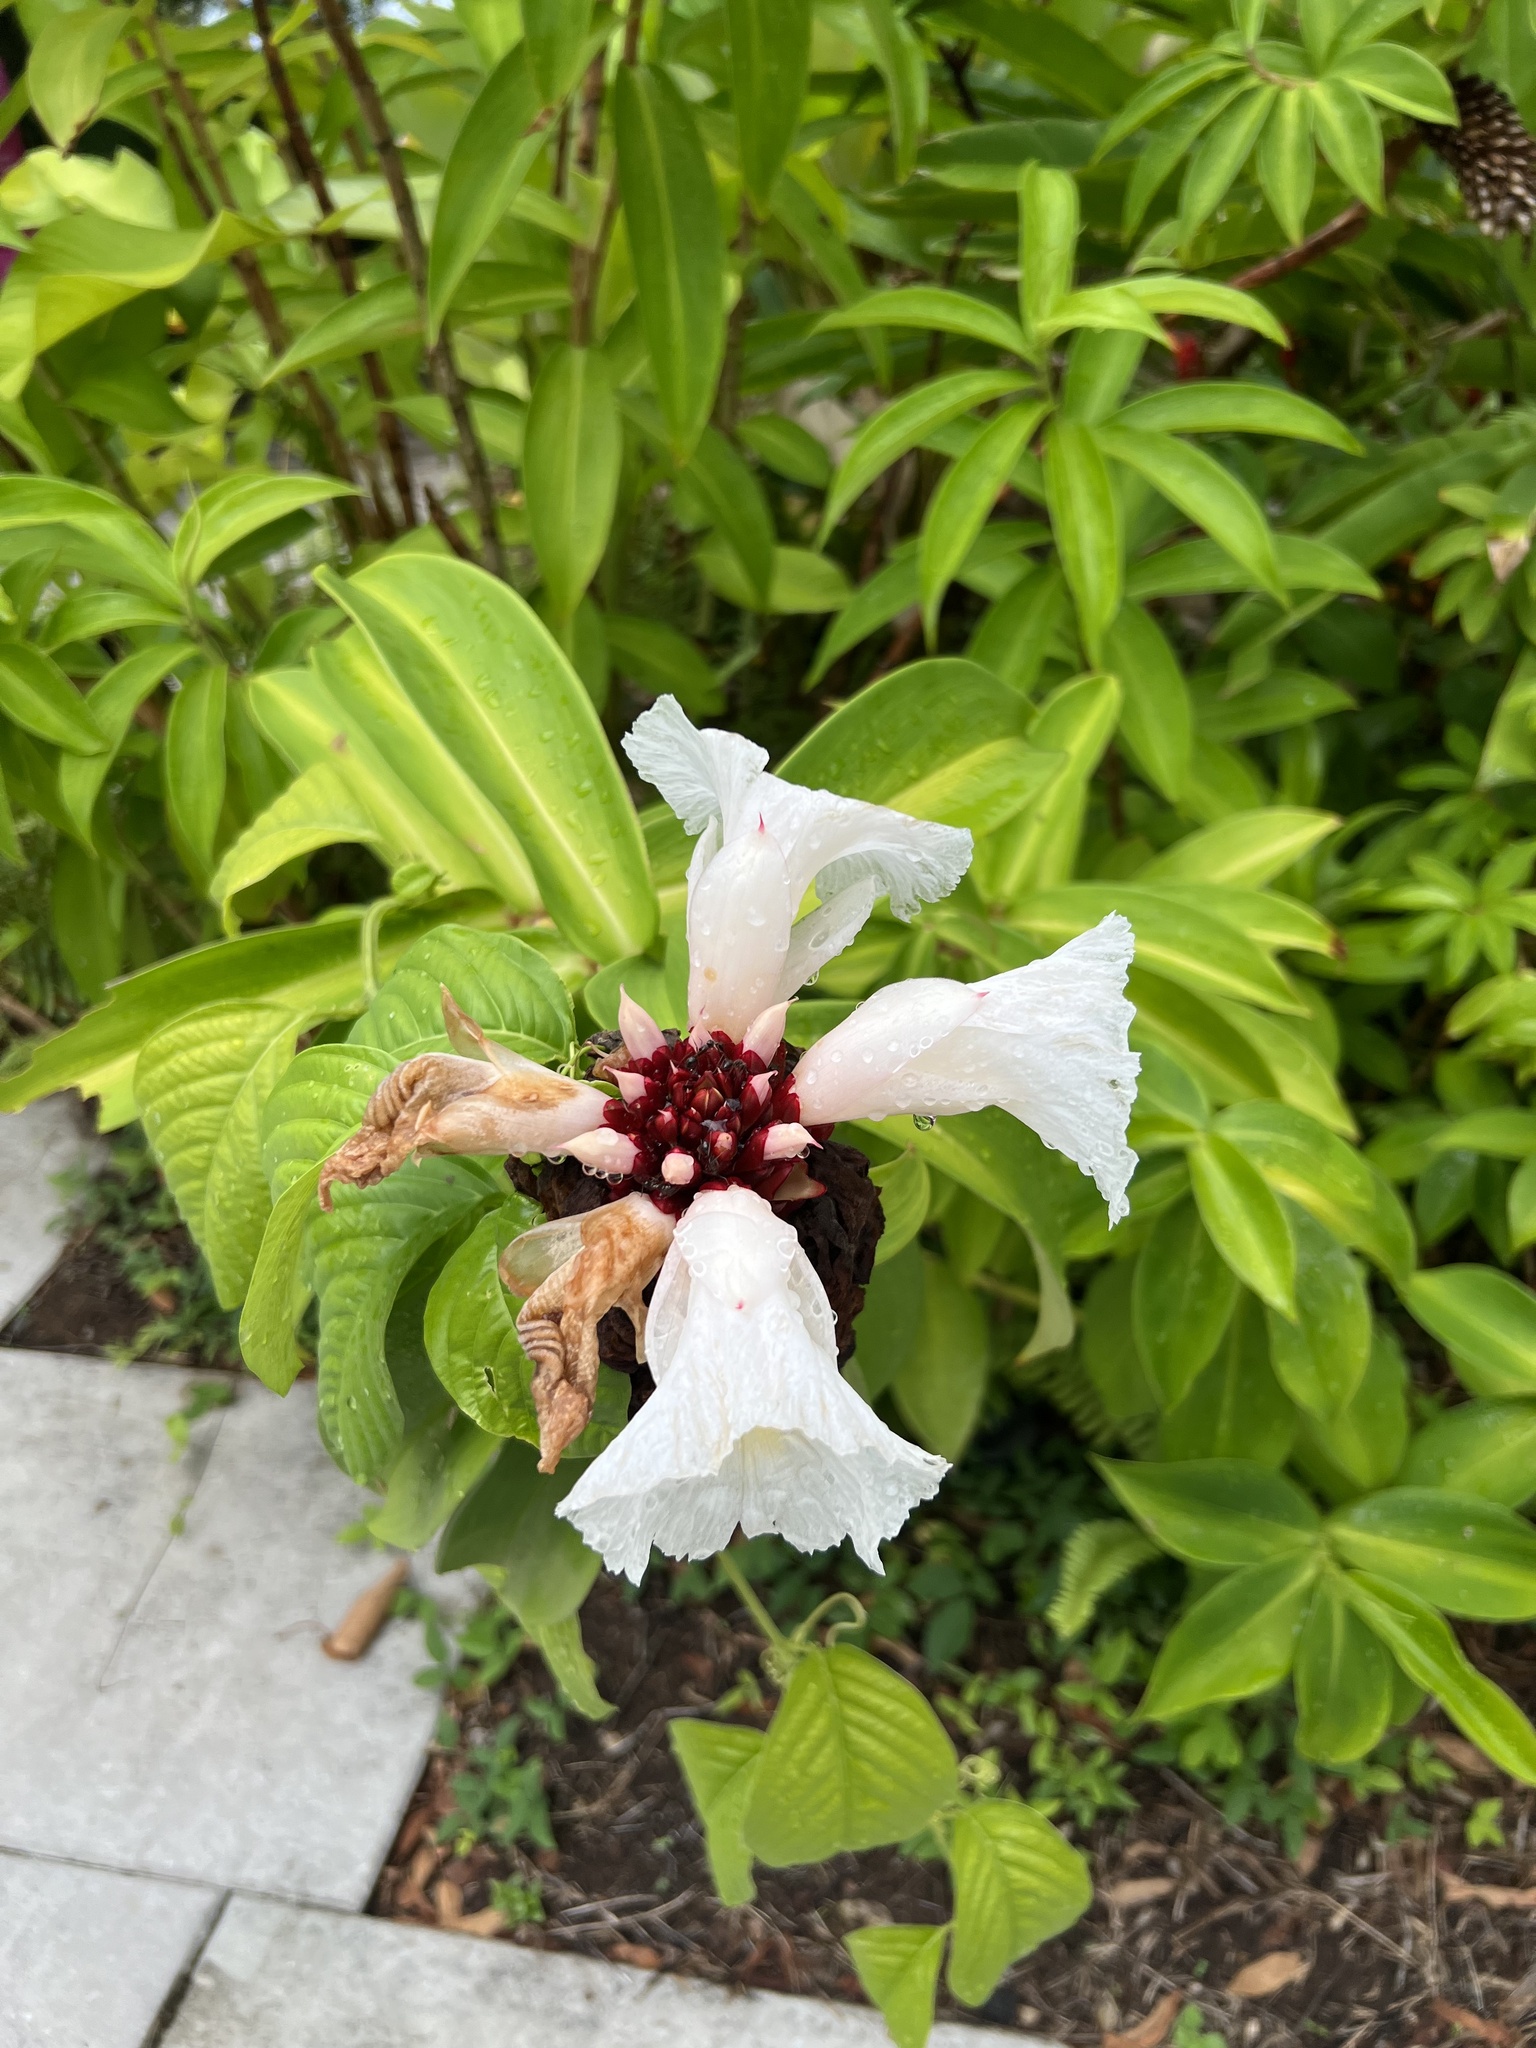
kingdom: Plantae
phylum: Tracheophyta
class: Liliopsida
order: Zingiberales
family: Costaceae
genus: Hellenia
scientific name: Hellenia speciosa
